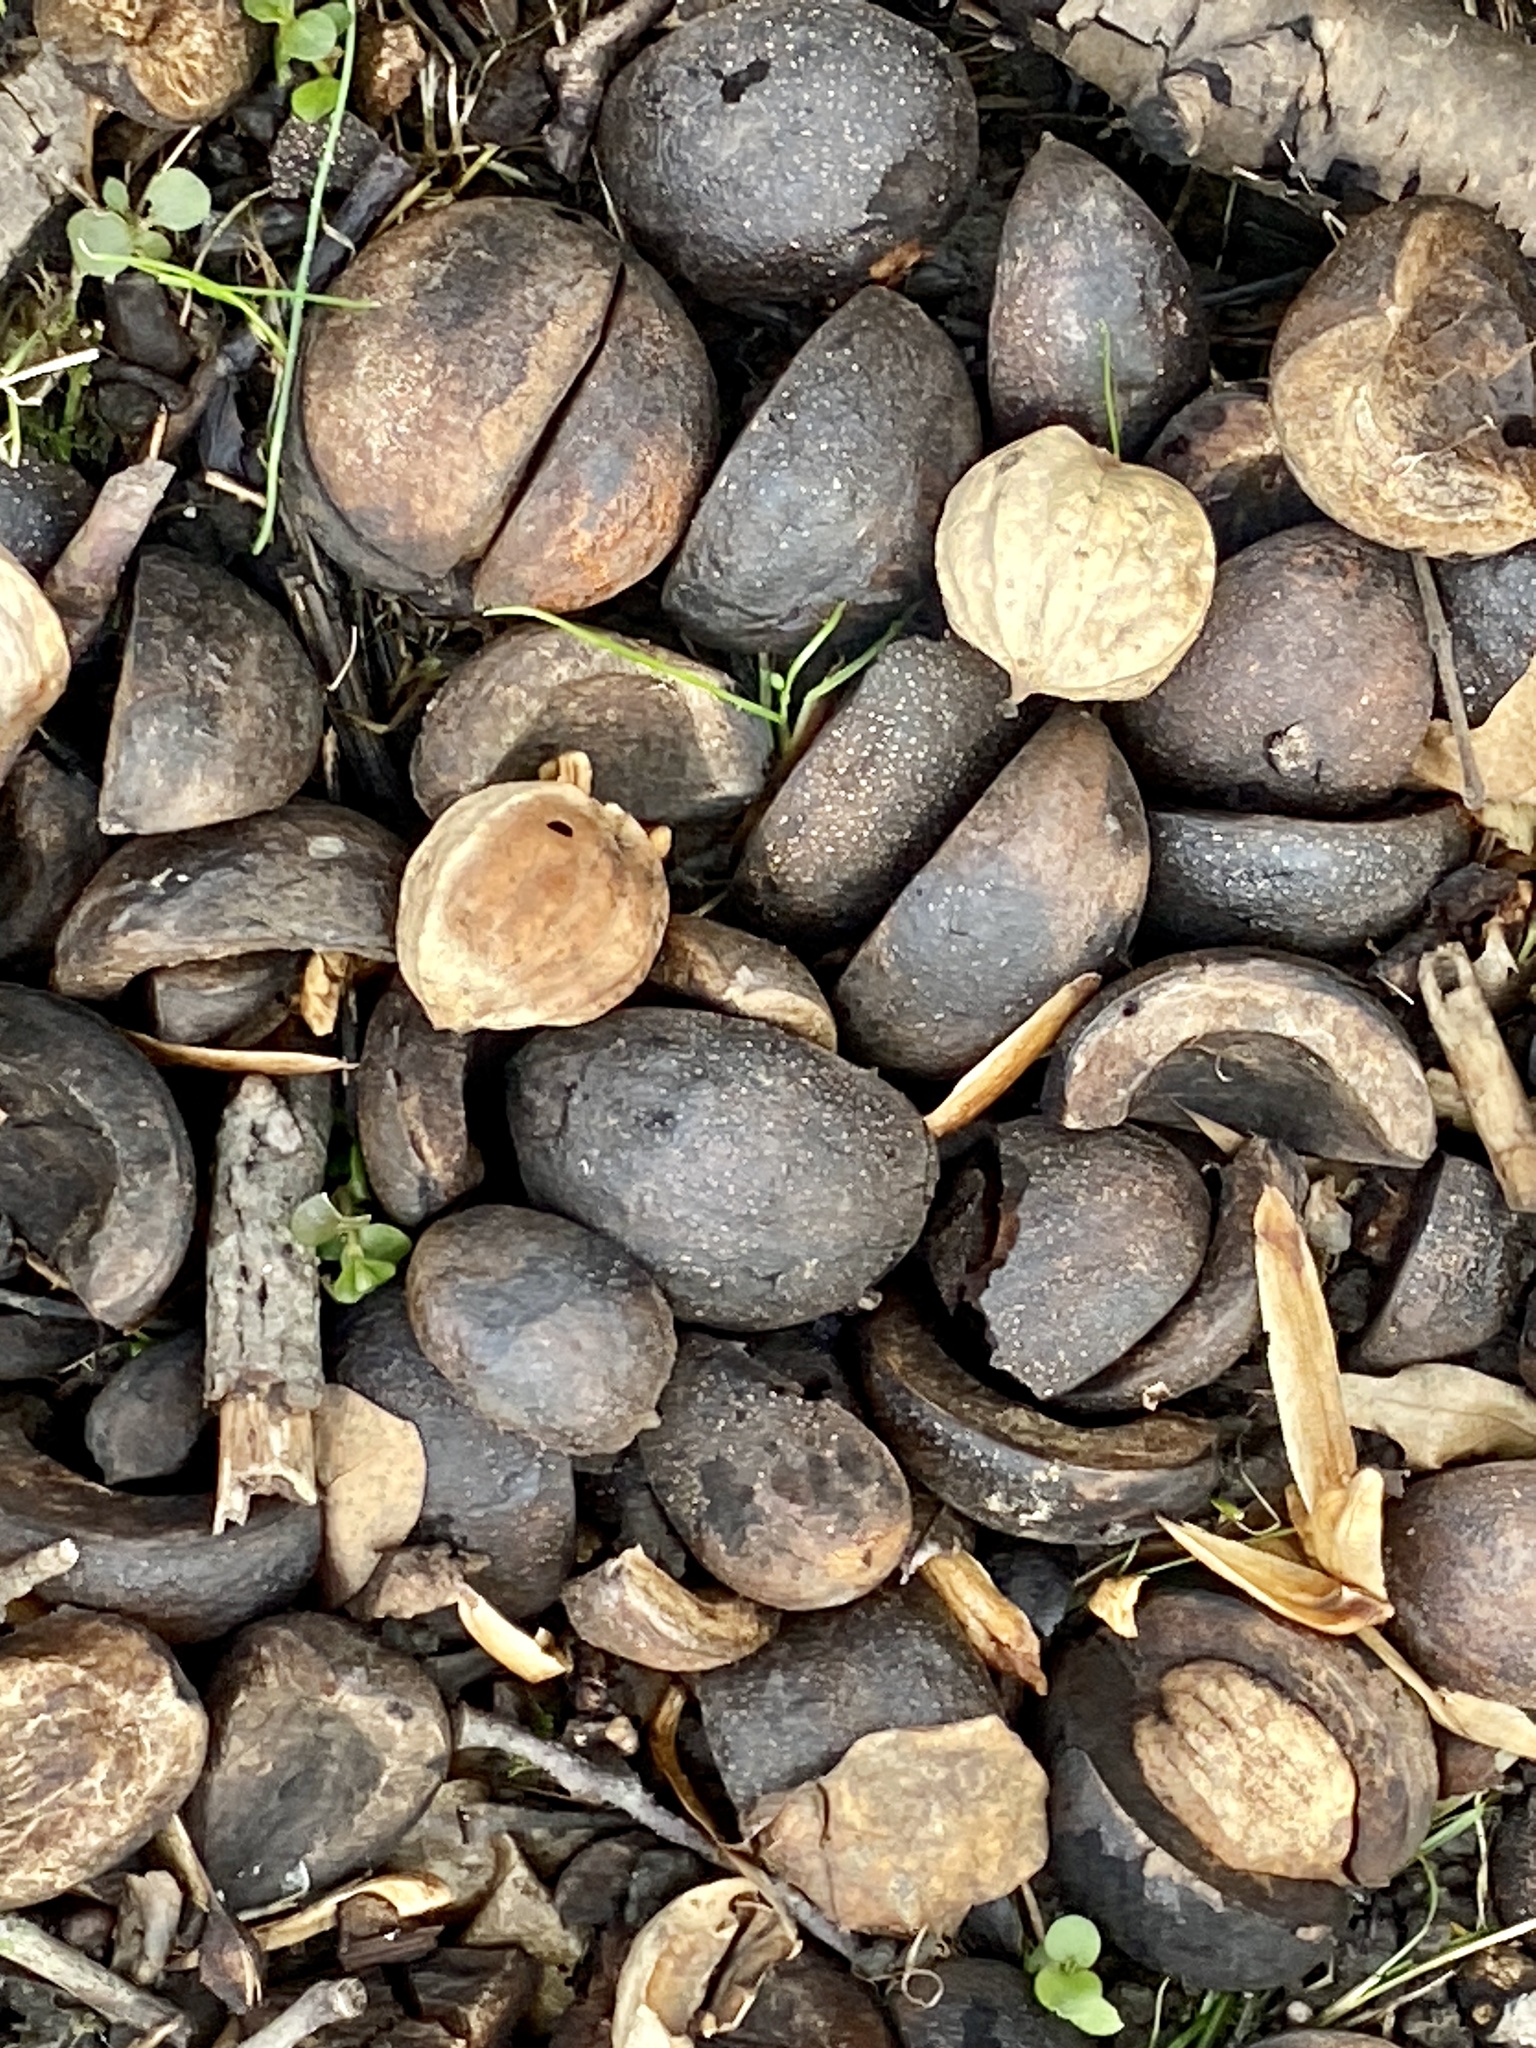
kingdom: Plantae
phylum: Tracheophyta
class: Magnoliopsida
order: Fagales
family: Juglandaceae
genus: Carya
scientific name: Carya ovata
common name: Shagbark hickory
